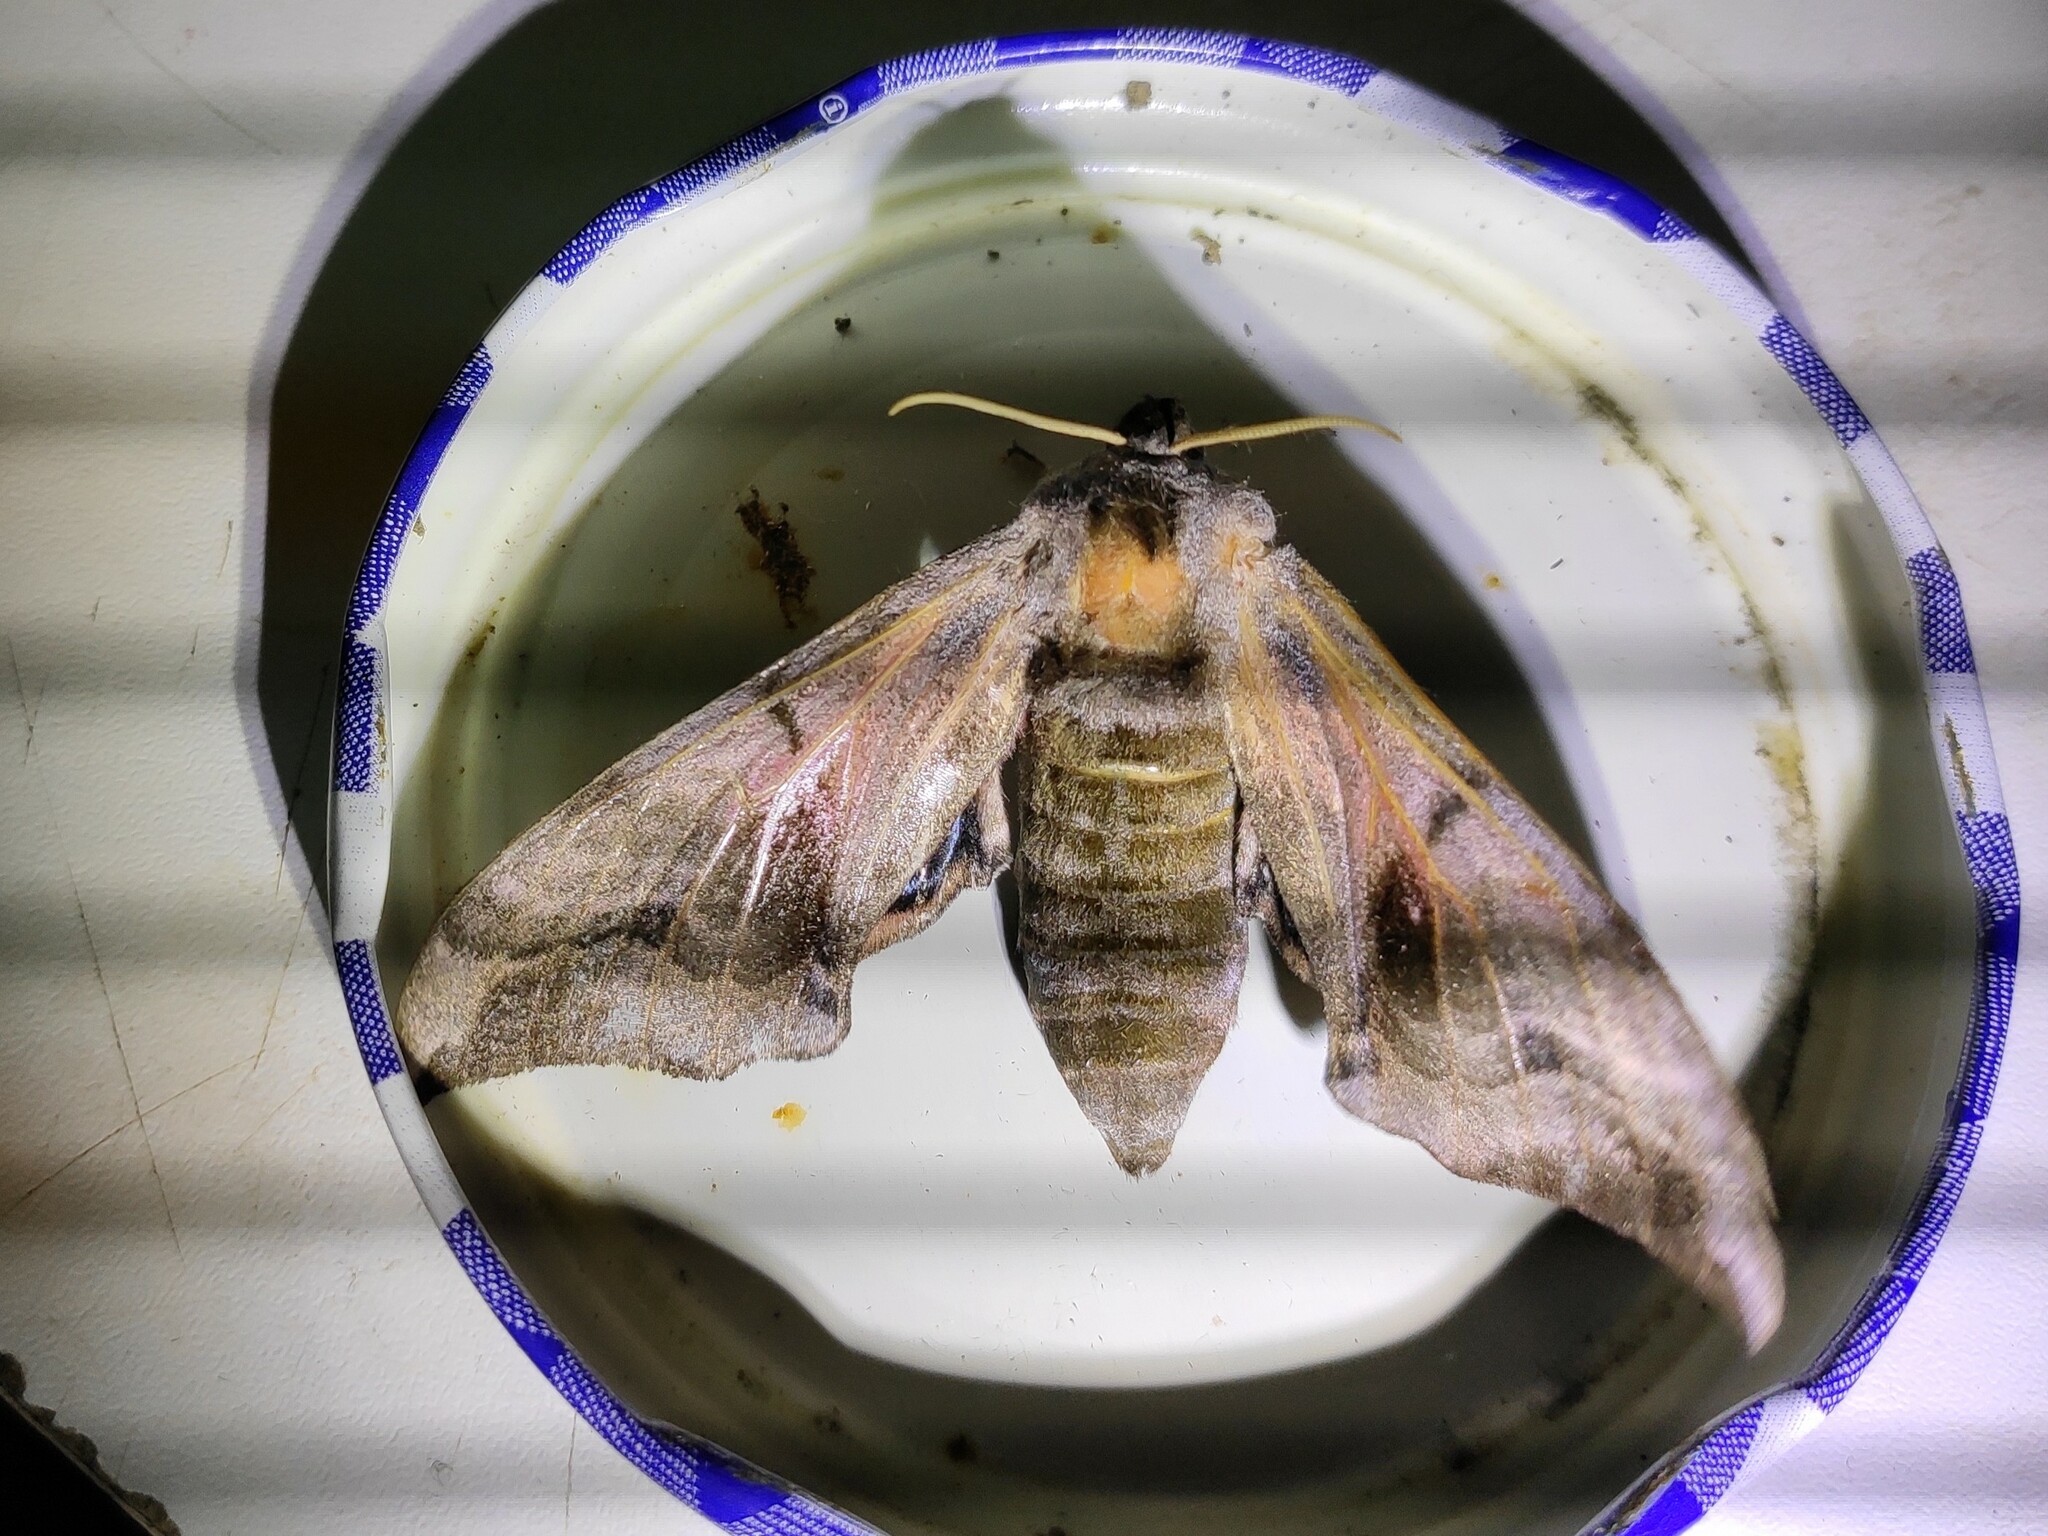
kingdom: Animalia
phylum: Arthropoda
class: Insecta
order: Lepidoptera
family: Sphingidae
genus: Smerinthus
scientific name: Smerinthus ocellata
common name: Eyed hawk-moth
